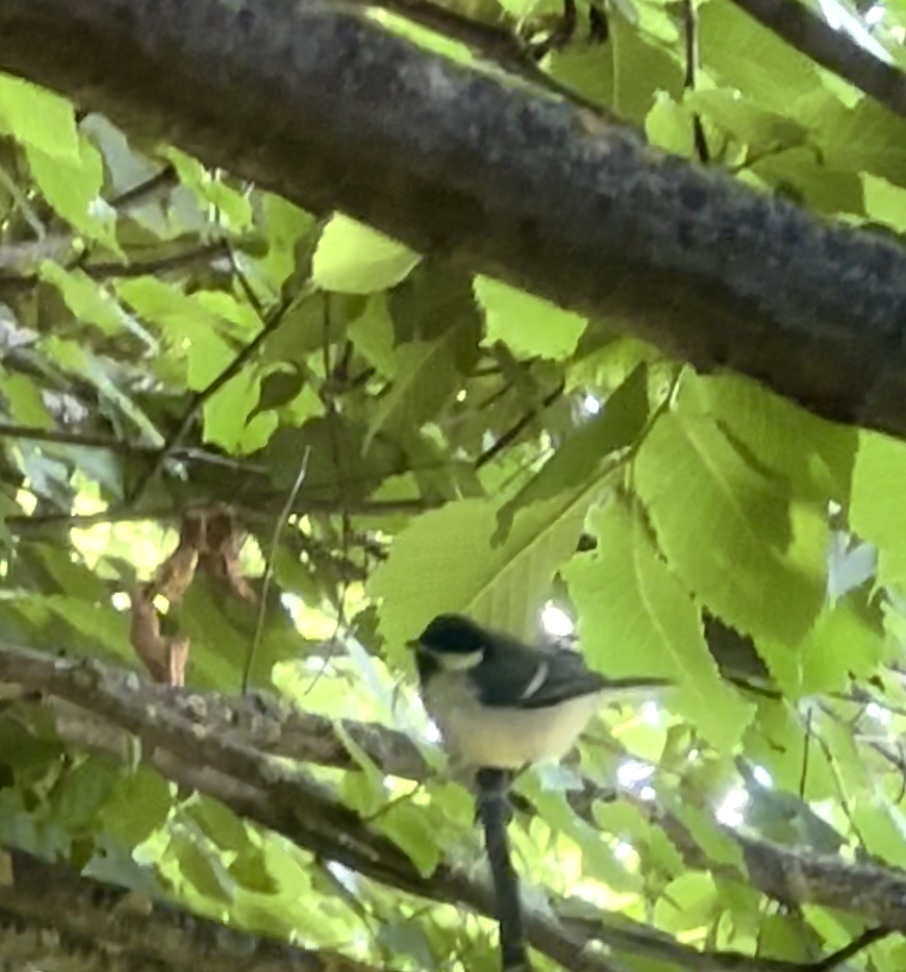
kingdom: Animalia
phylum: Chordata
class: Aves
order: Passeriformes
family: Paridae
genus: Parus
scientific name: Parus major
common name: Great tit
